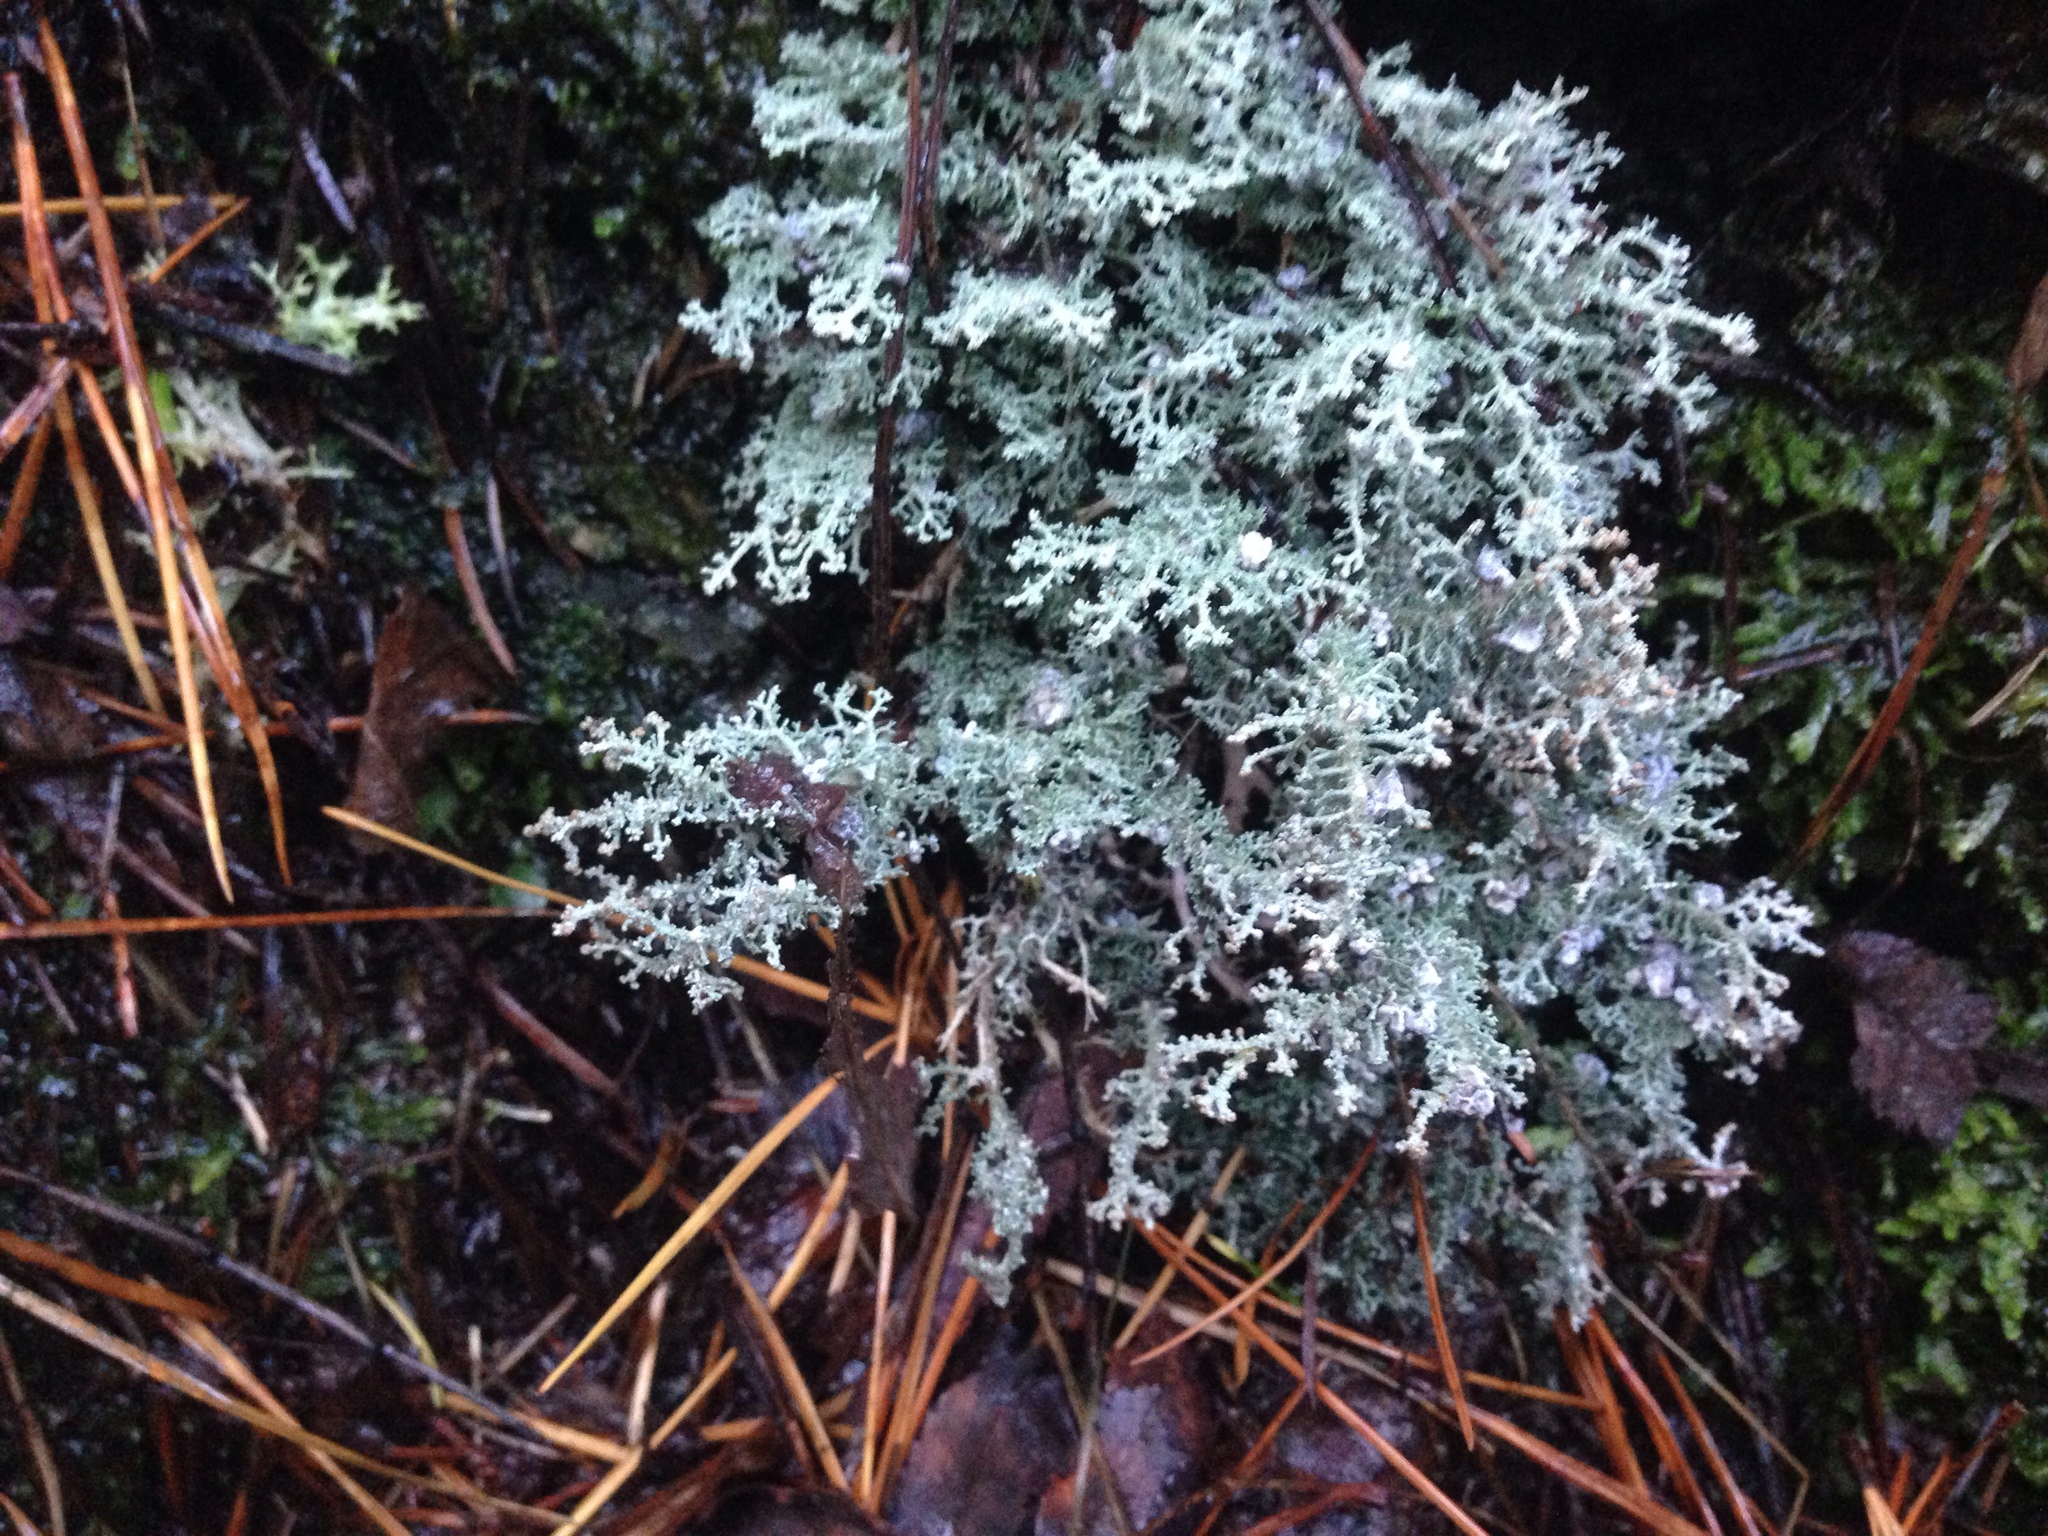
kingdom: Fungi
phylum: Ascomycota
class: Lecanoromycetes
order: Lecanorales
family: Stereocaulaceae
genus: Stereocaulon
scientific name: Stereocaulon ramulosum
